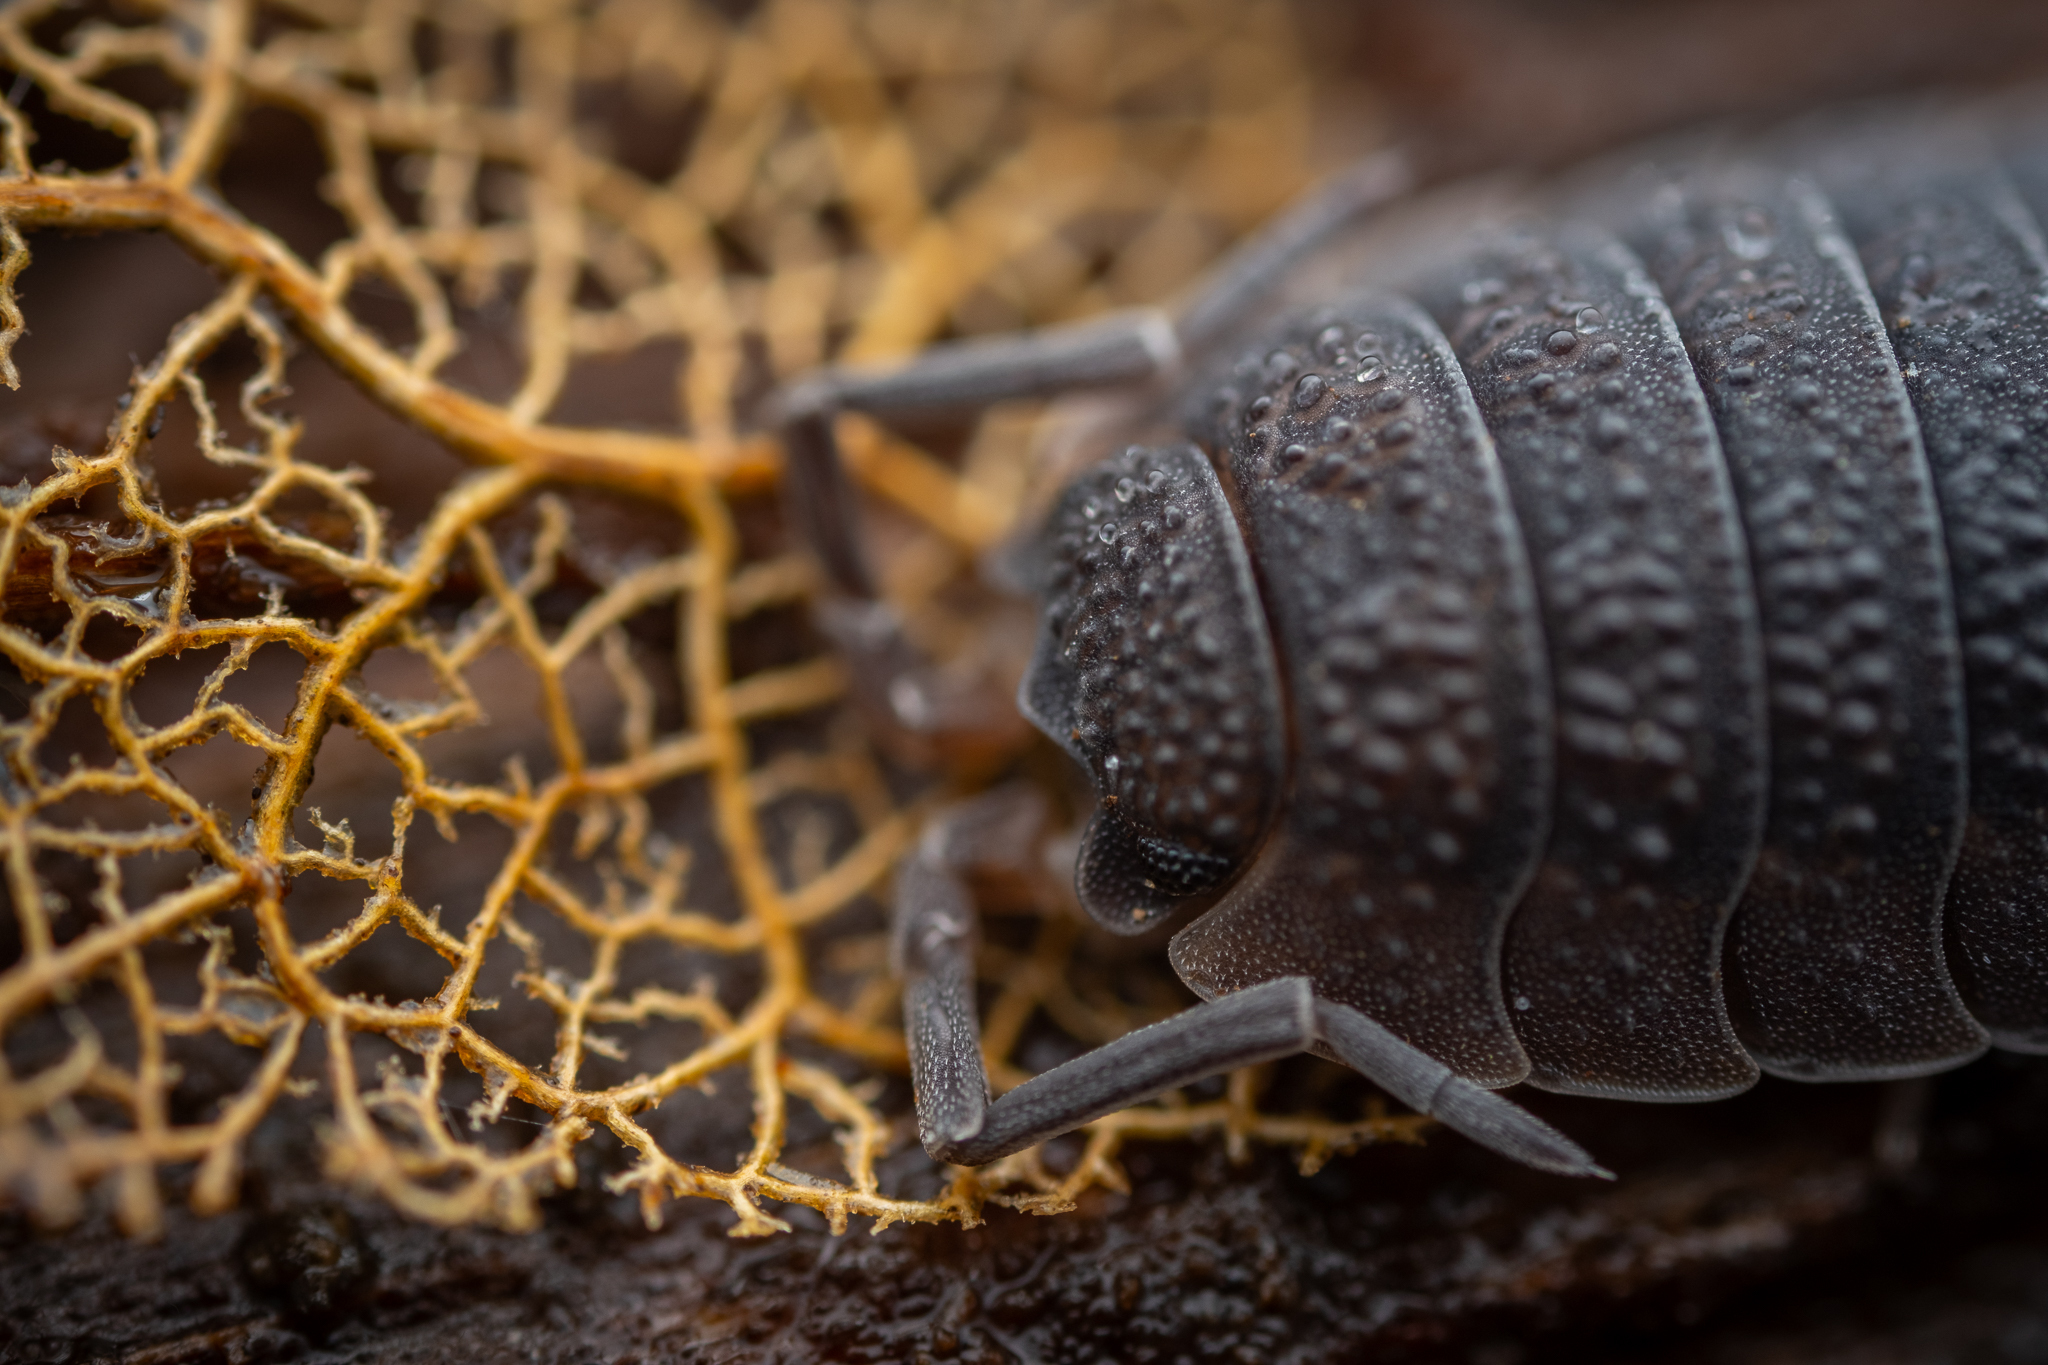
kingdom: Animalia
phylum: Arthropoda
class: Malacostraca
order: Isopoda
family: Porcellionidae
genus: Porcellio
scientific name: Porcellio scaber
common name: Common rough woodlouse
